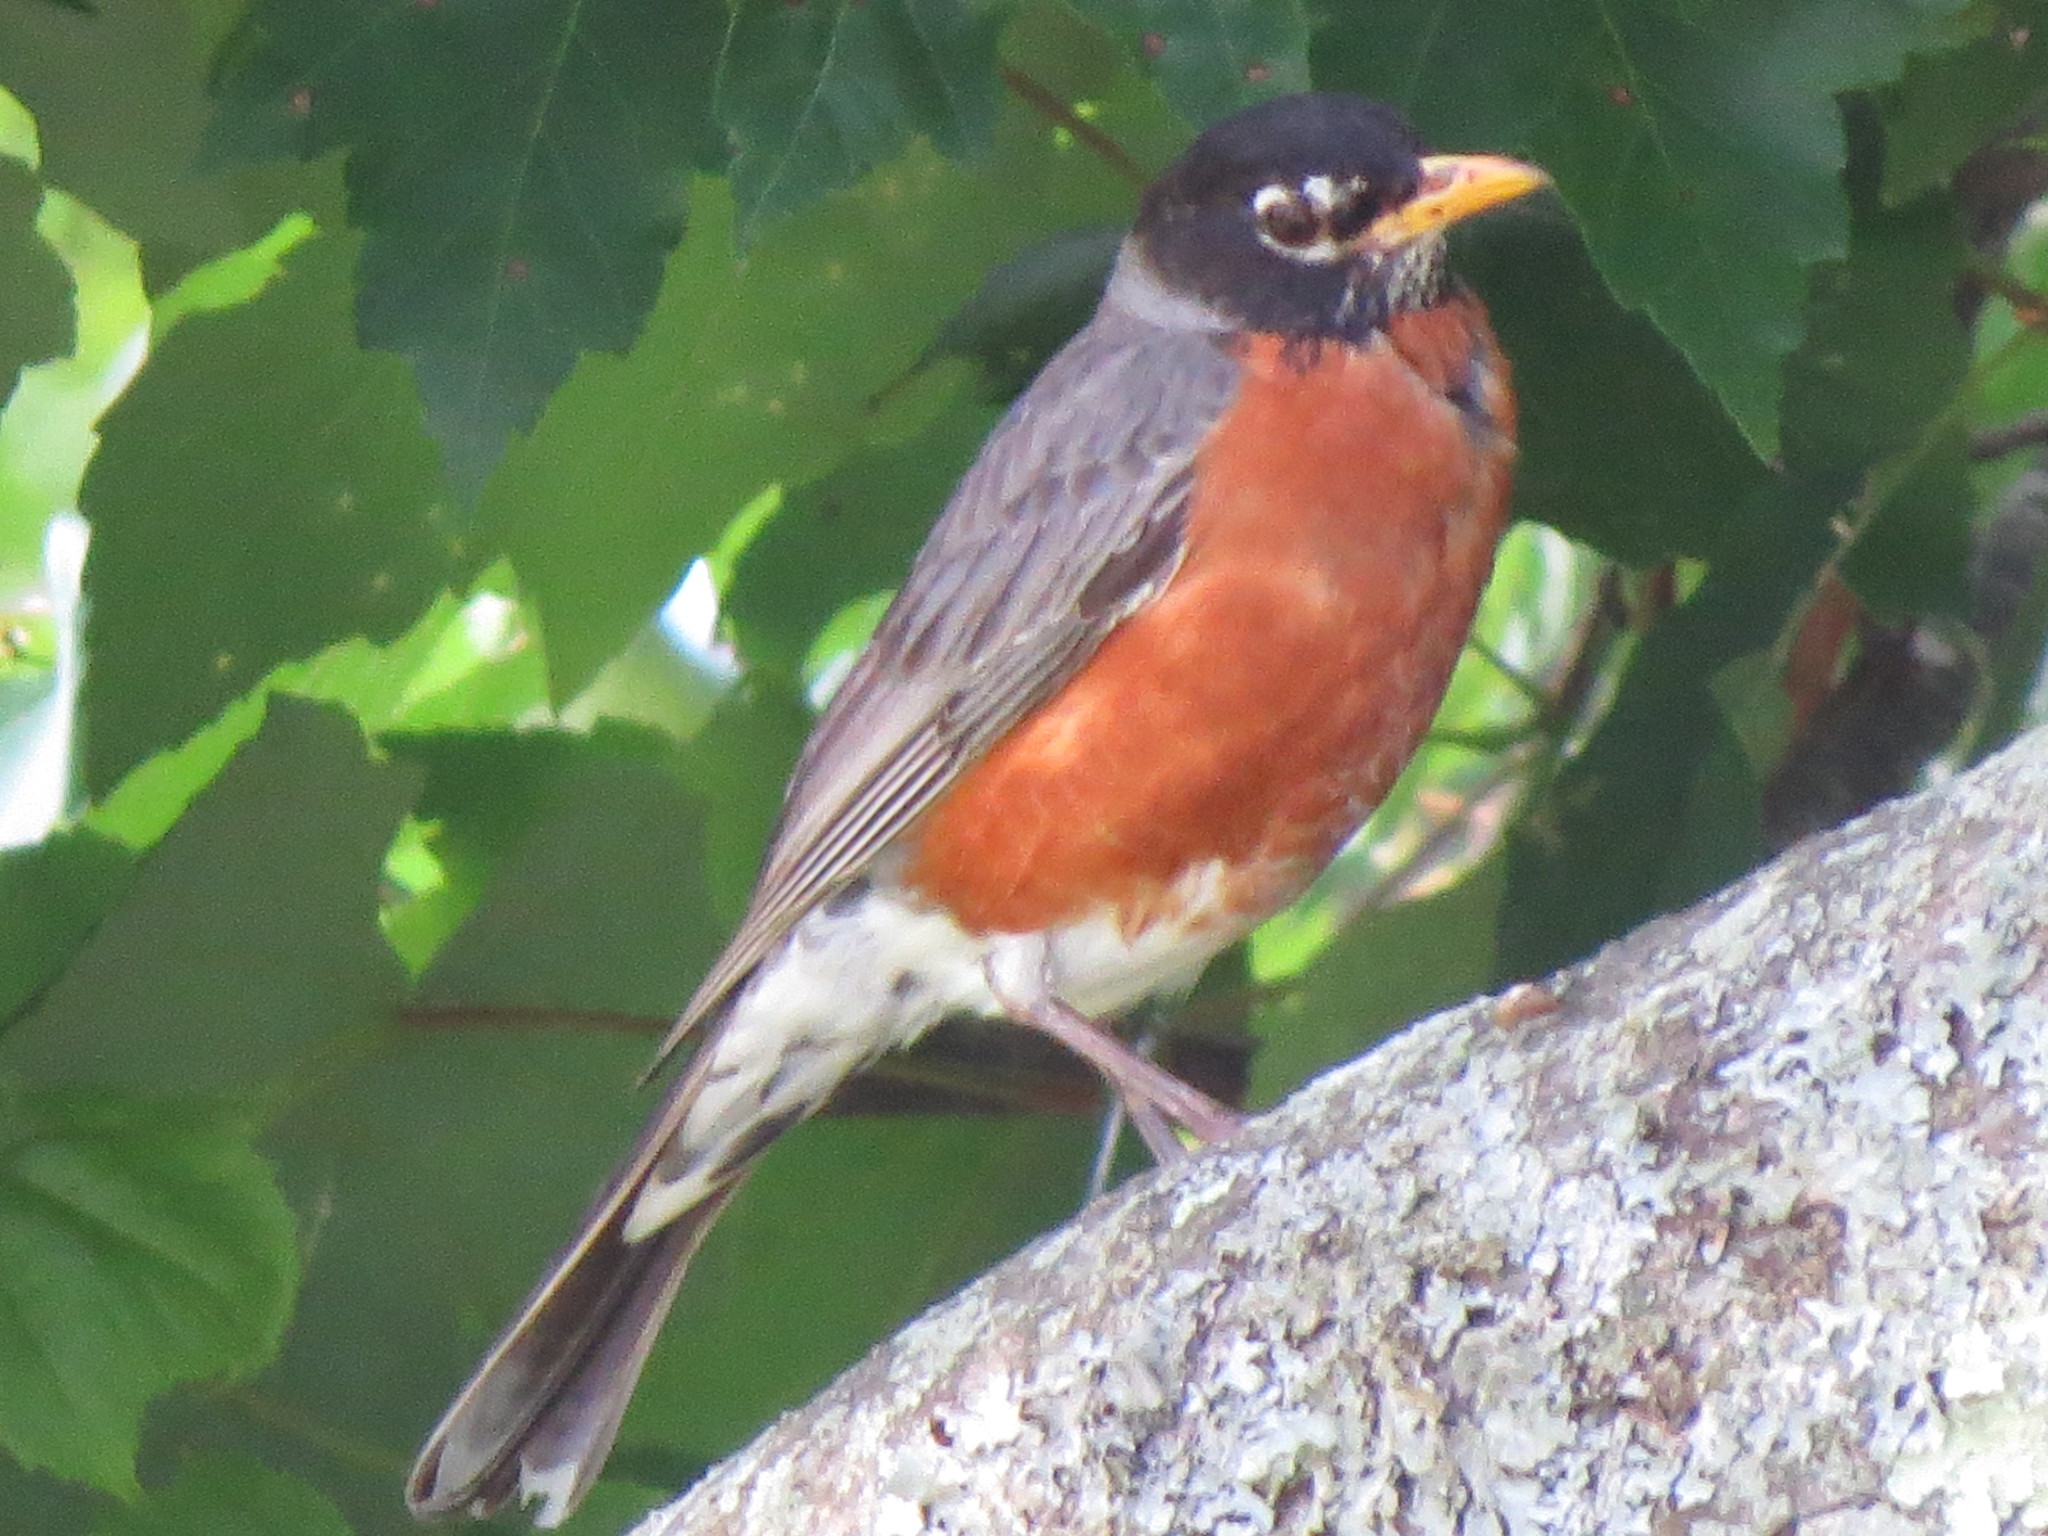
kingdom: Animalia
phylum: Chordata
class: Aves
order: Passeriformes
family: Turdidae
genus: Turdus
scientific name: Turdus migratorius
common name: American robin
